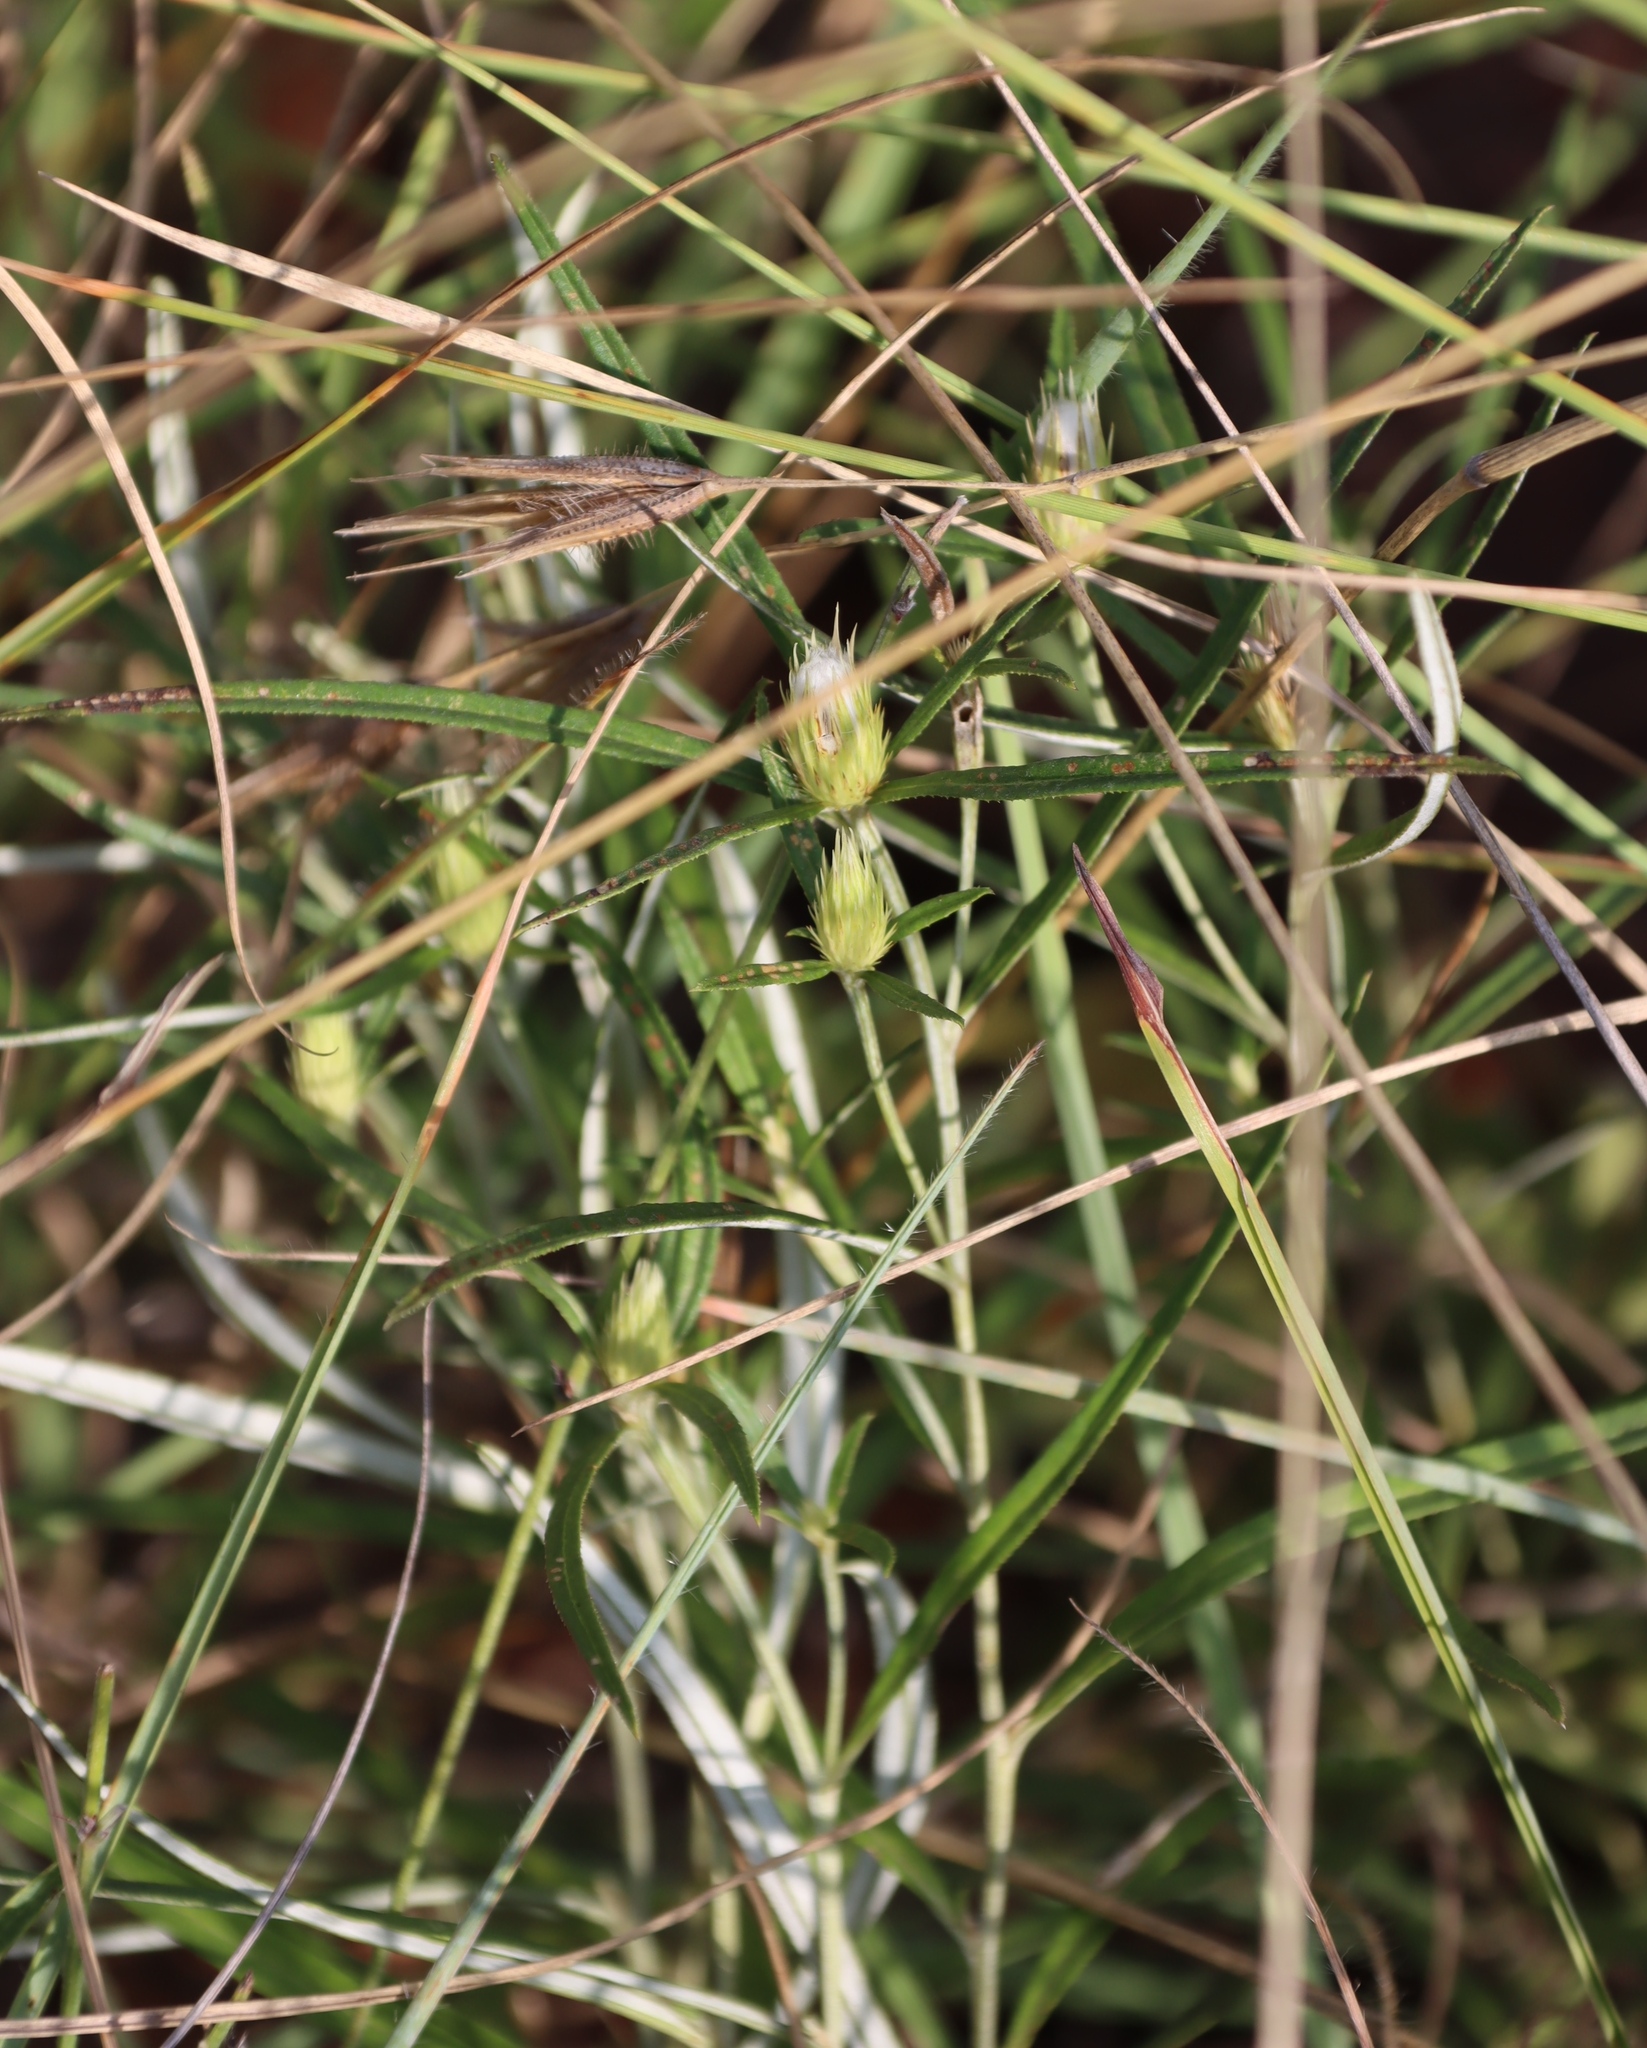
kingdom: Plantae
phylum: Tracheophyta
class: Magnoliopsida
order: Asterales
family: Asteraceae
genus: Dicoma
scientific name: Dicoma anomala
